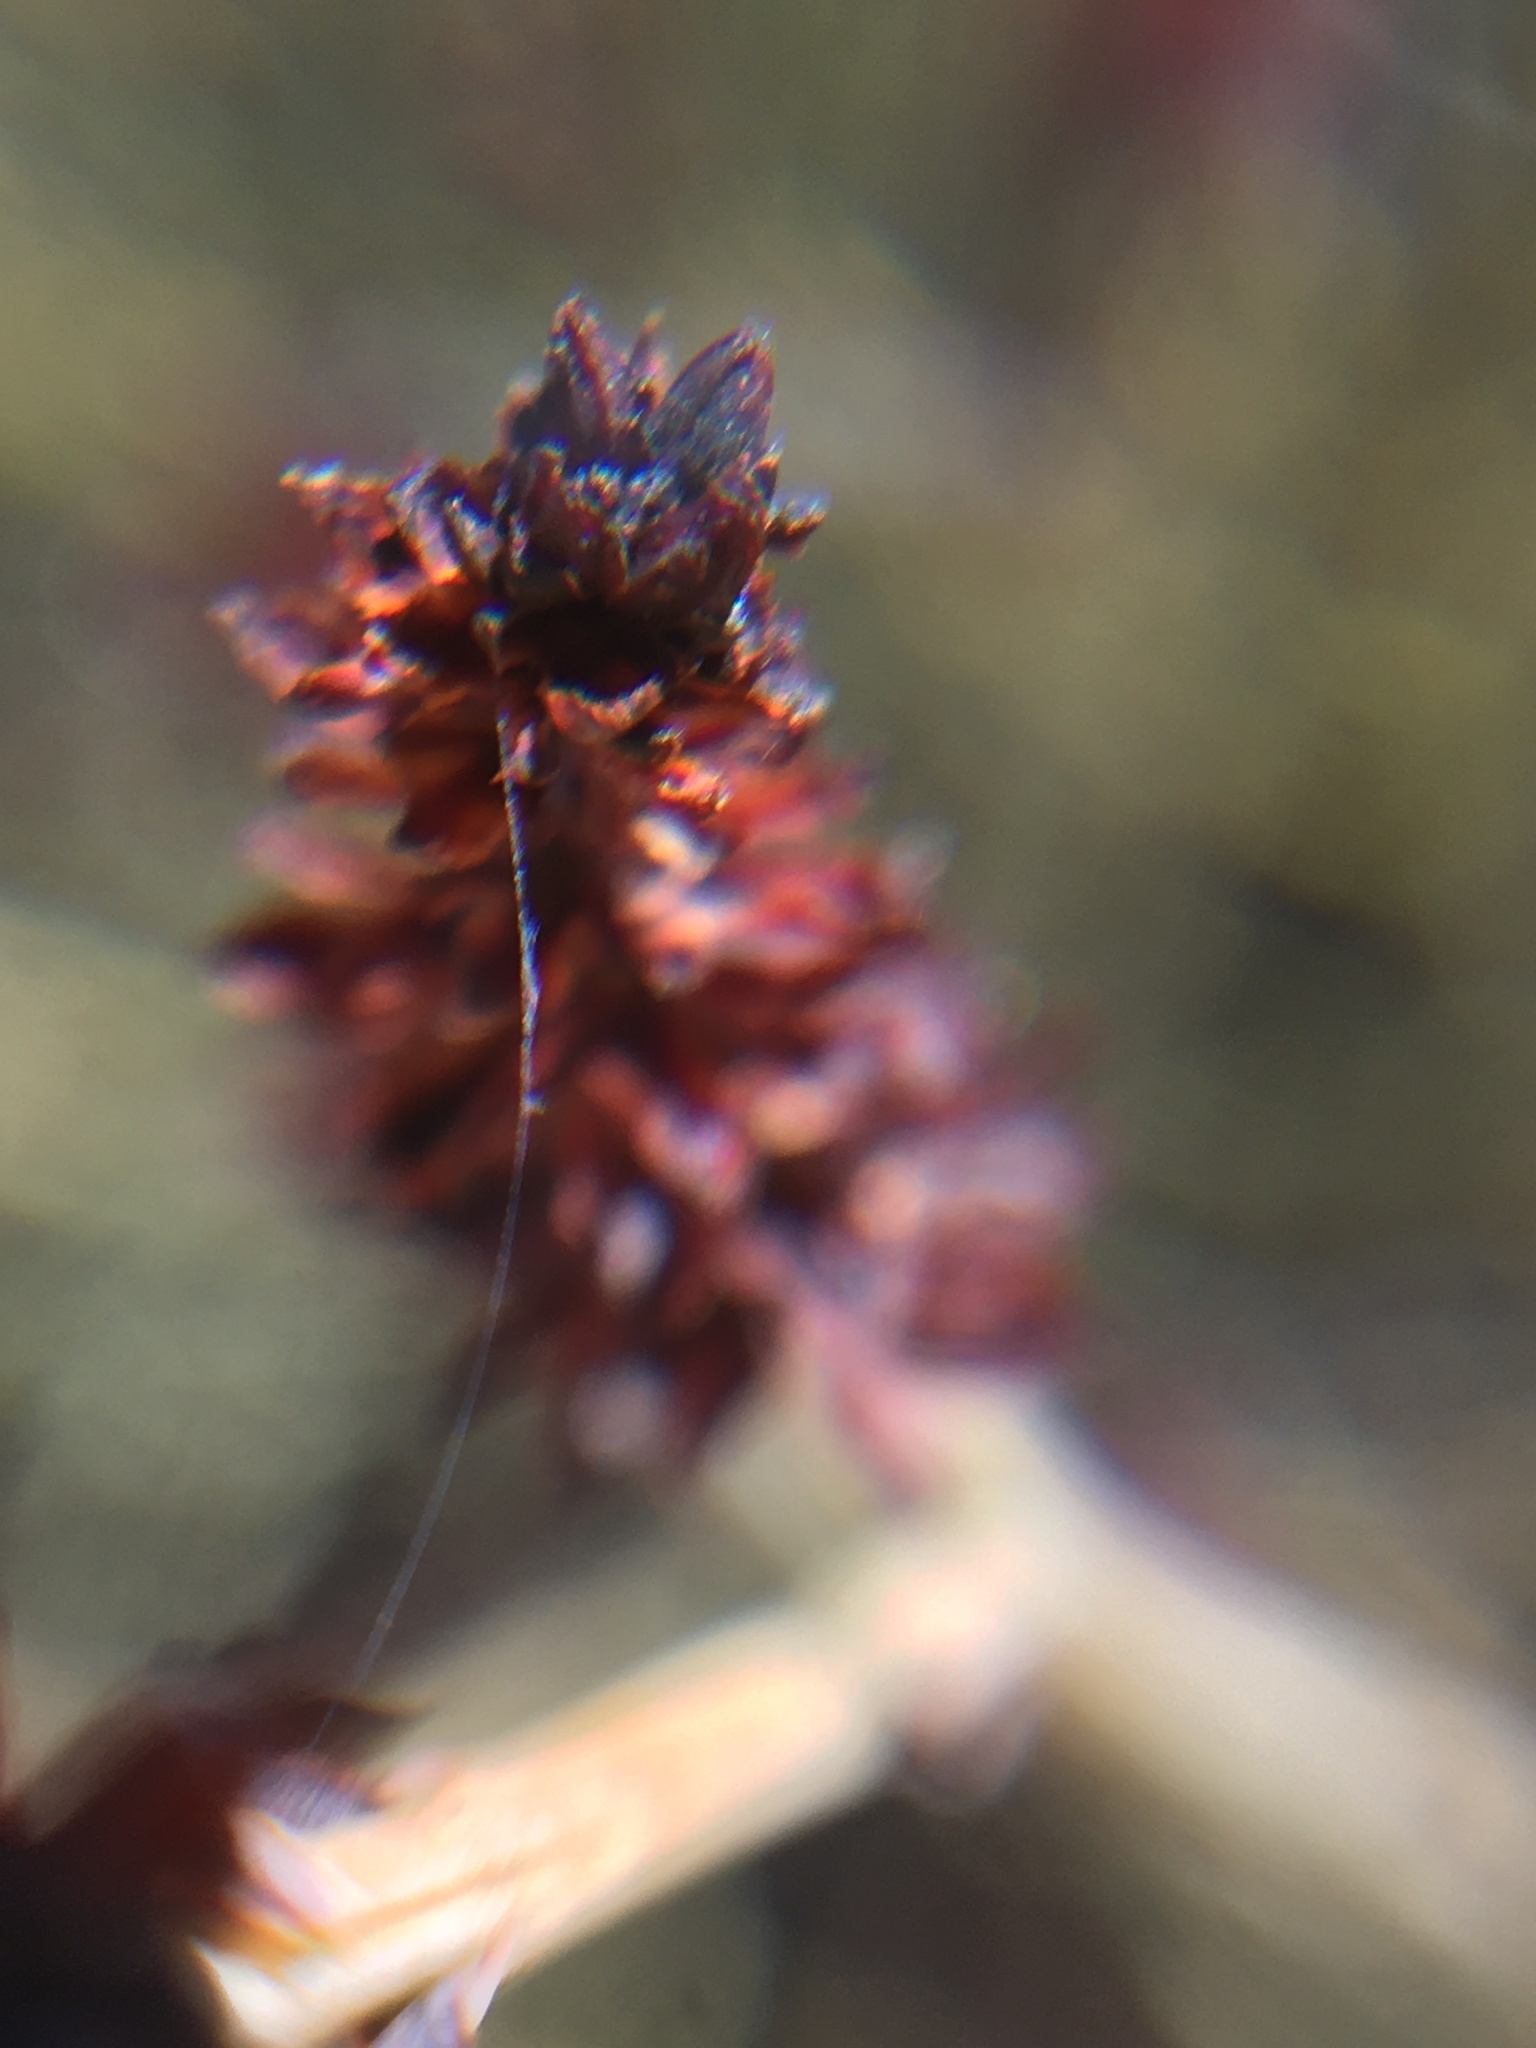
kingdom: Plantae
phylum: Tracheophyta
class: Magnoliopsida
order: Santalales
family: Thesiaceae
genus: Thesium
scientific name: Thesium spicatum
